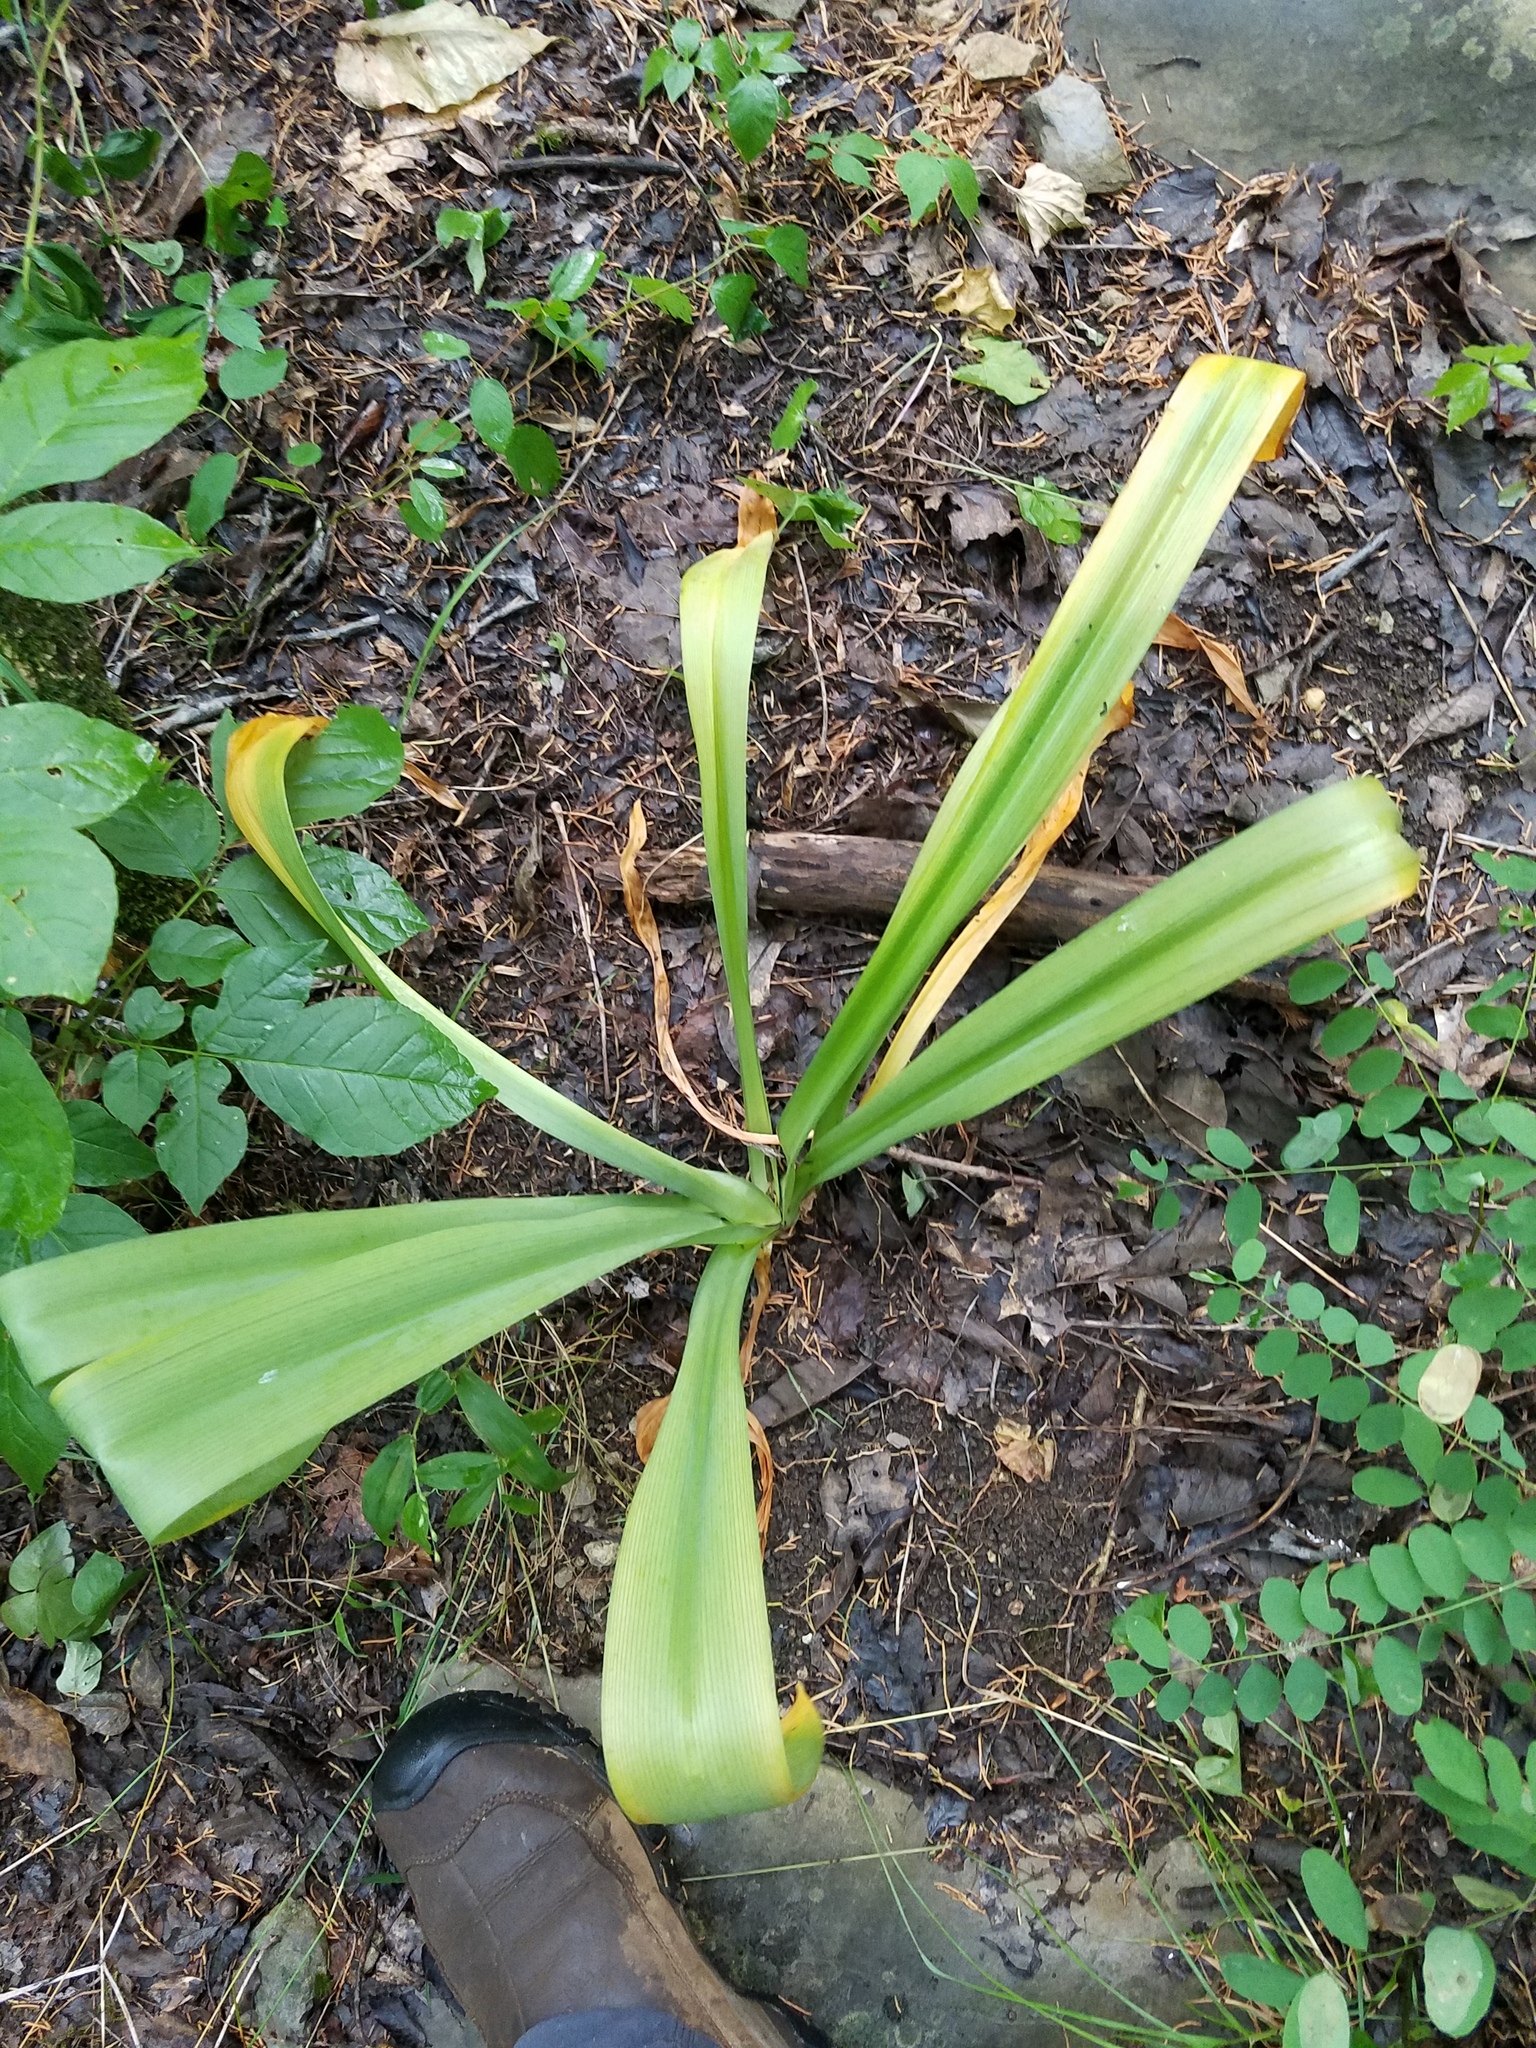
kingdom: Plantae
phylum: Tracheophyta
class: Liliopsida
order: Asparagales
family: Amaryllidaceae
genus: Hymenocallis
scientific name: Hymenocallis occidentalis
